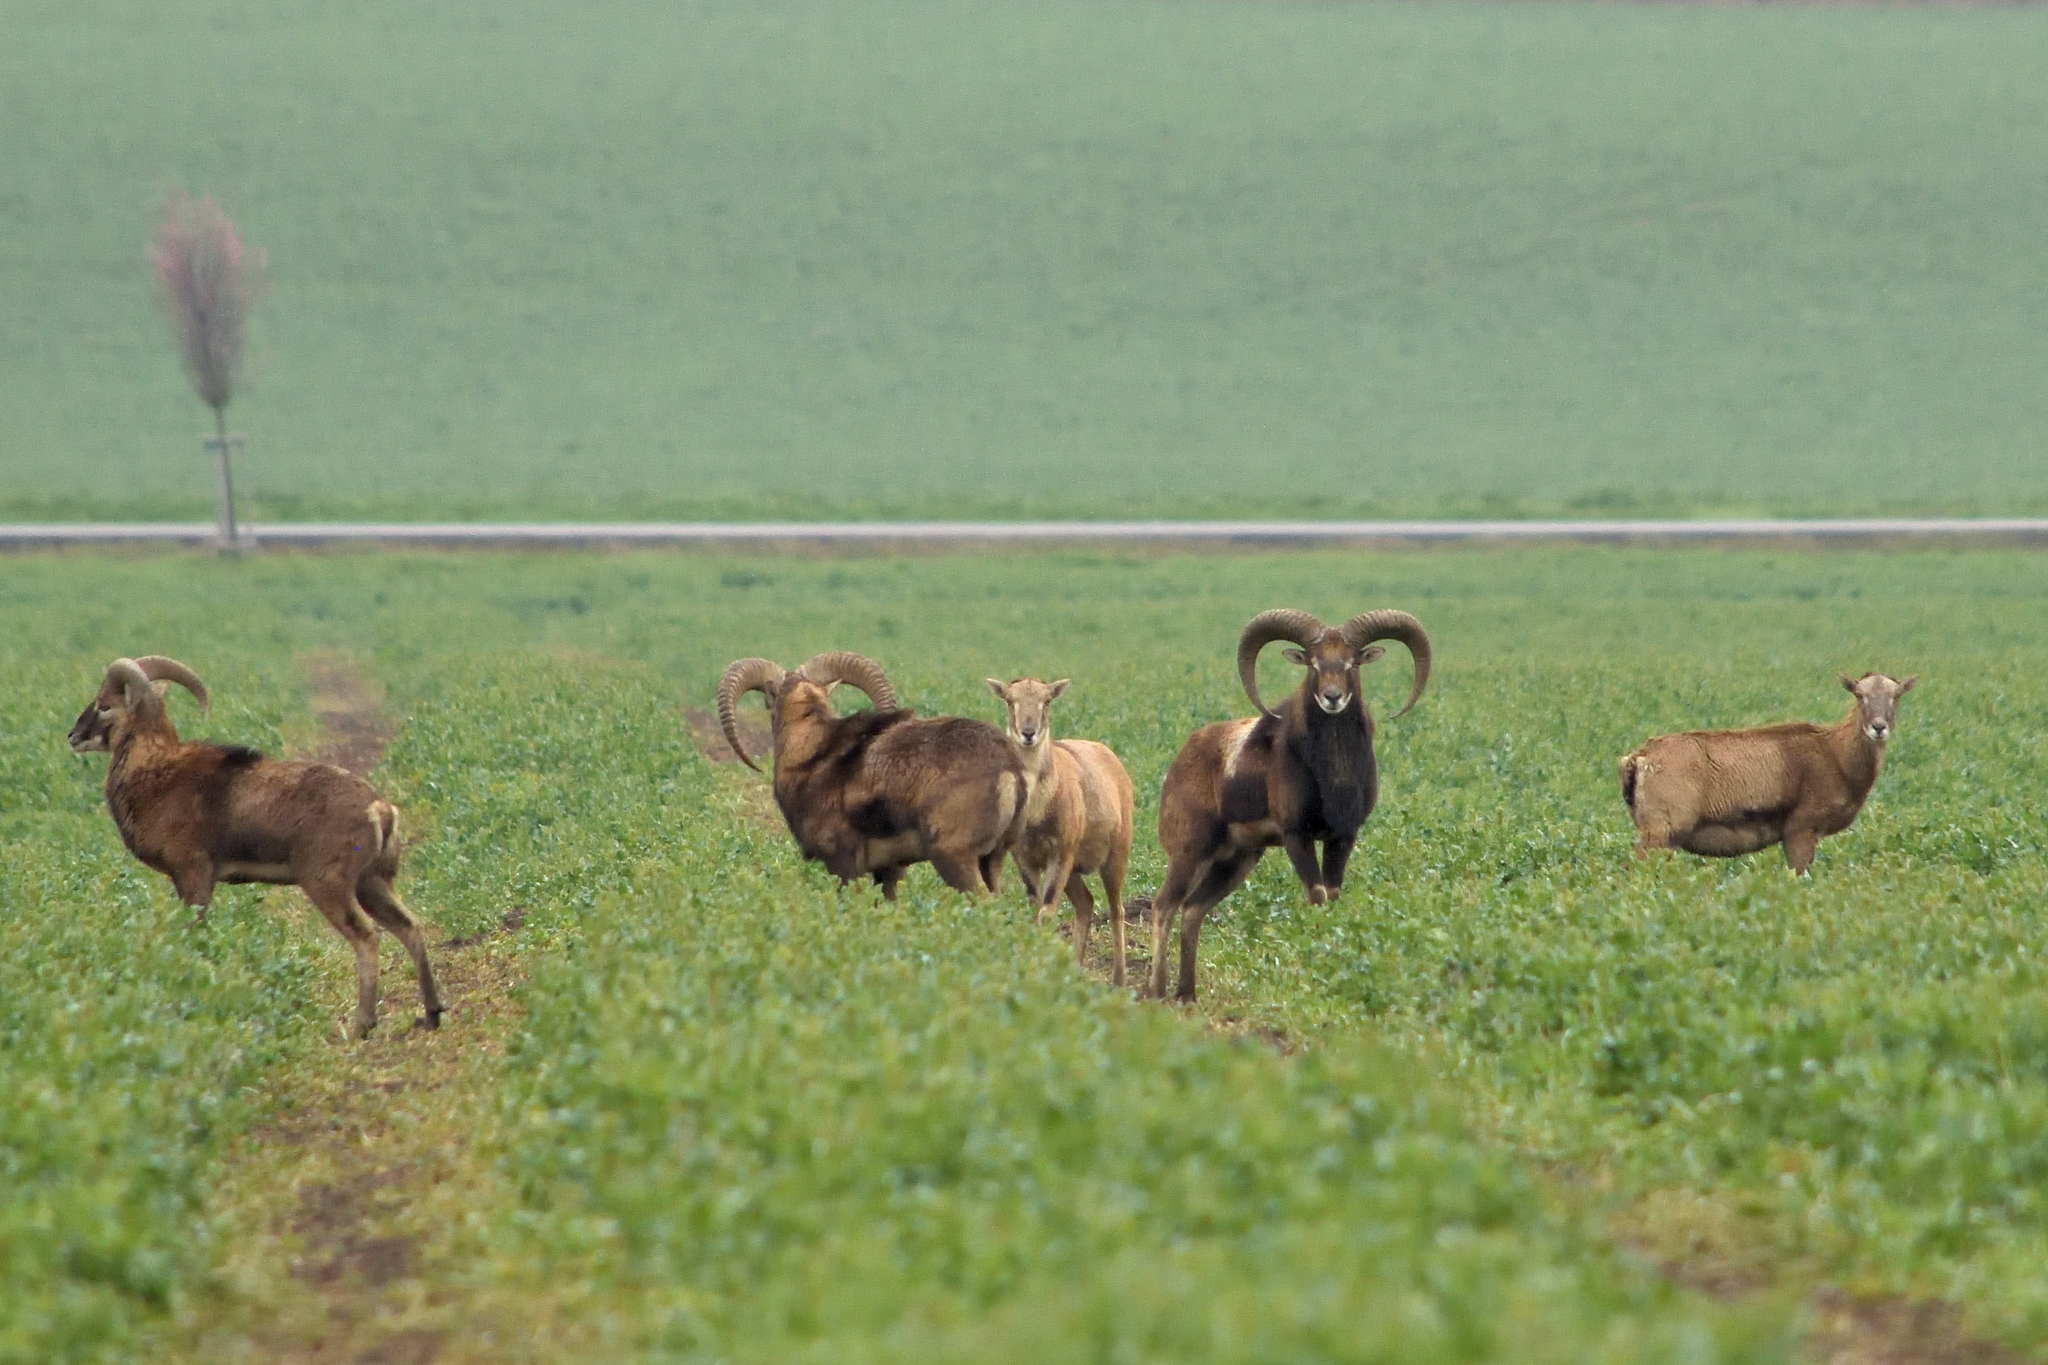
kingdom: Animalia
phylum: Chordata
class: Mammalia
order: Artiodactyla
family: Bovidae
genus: Ovis
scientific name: Ovis aries
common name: Domestic sheep
